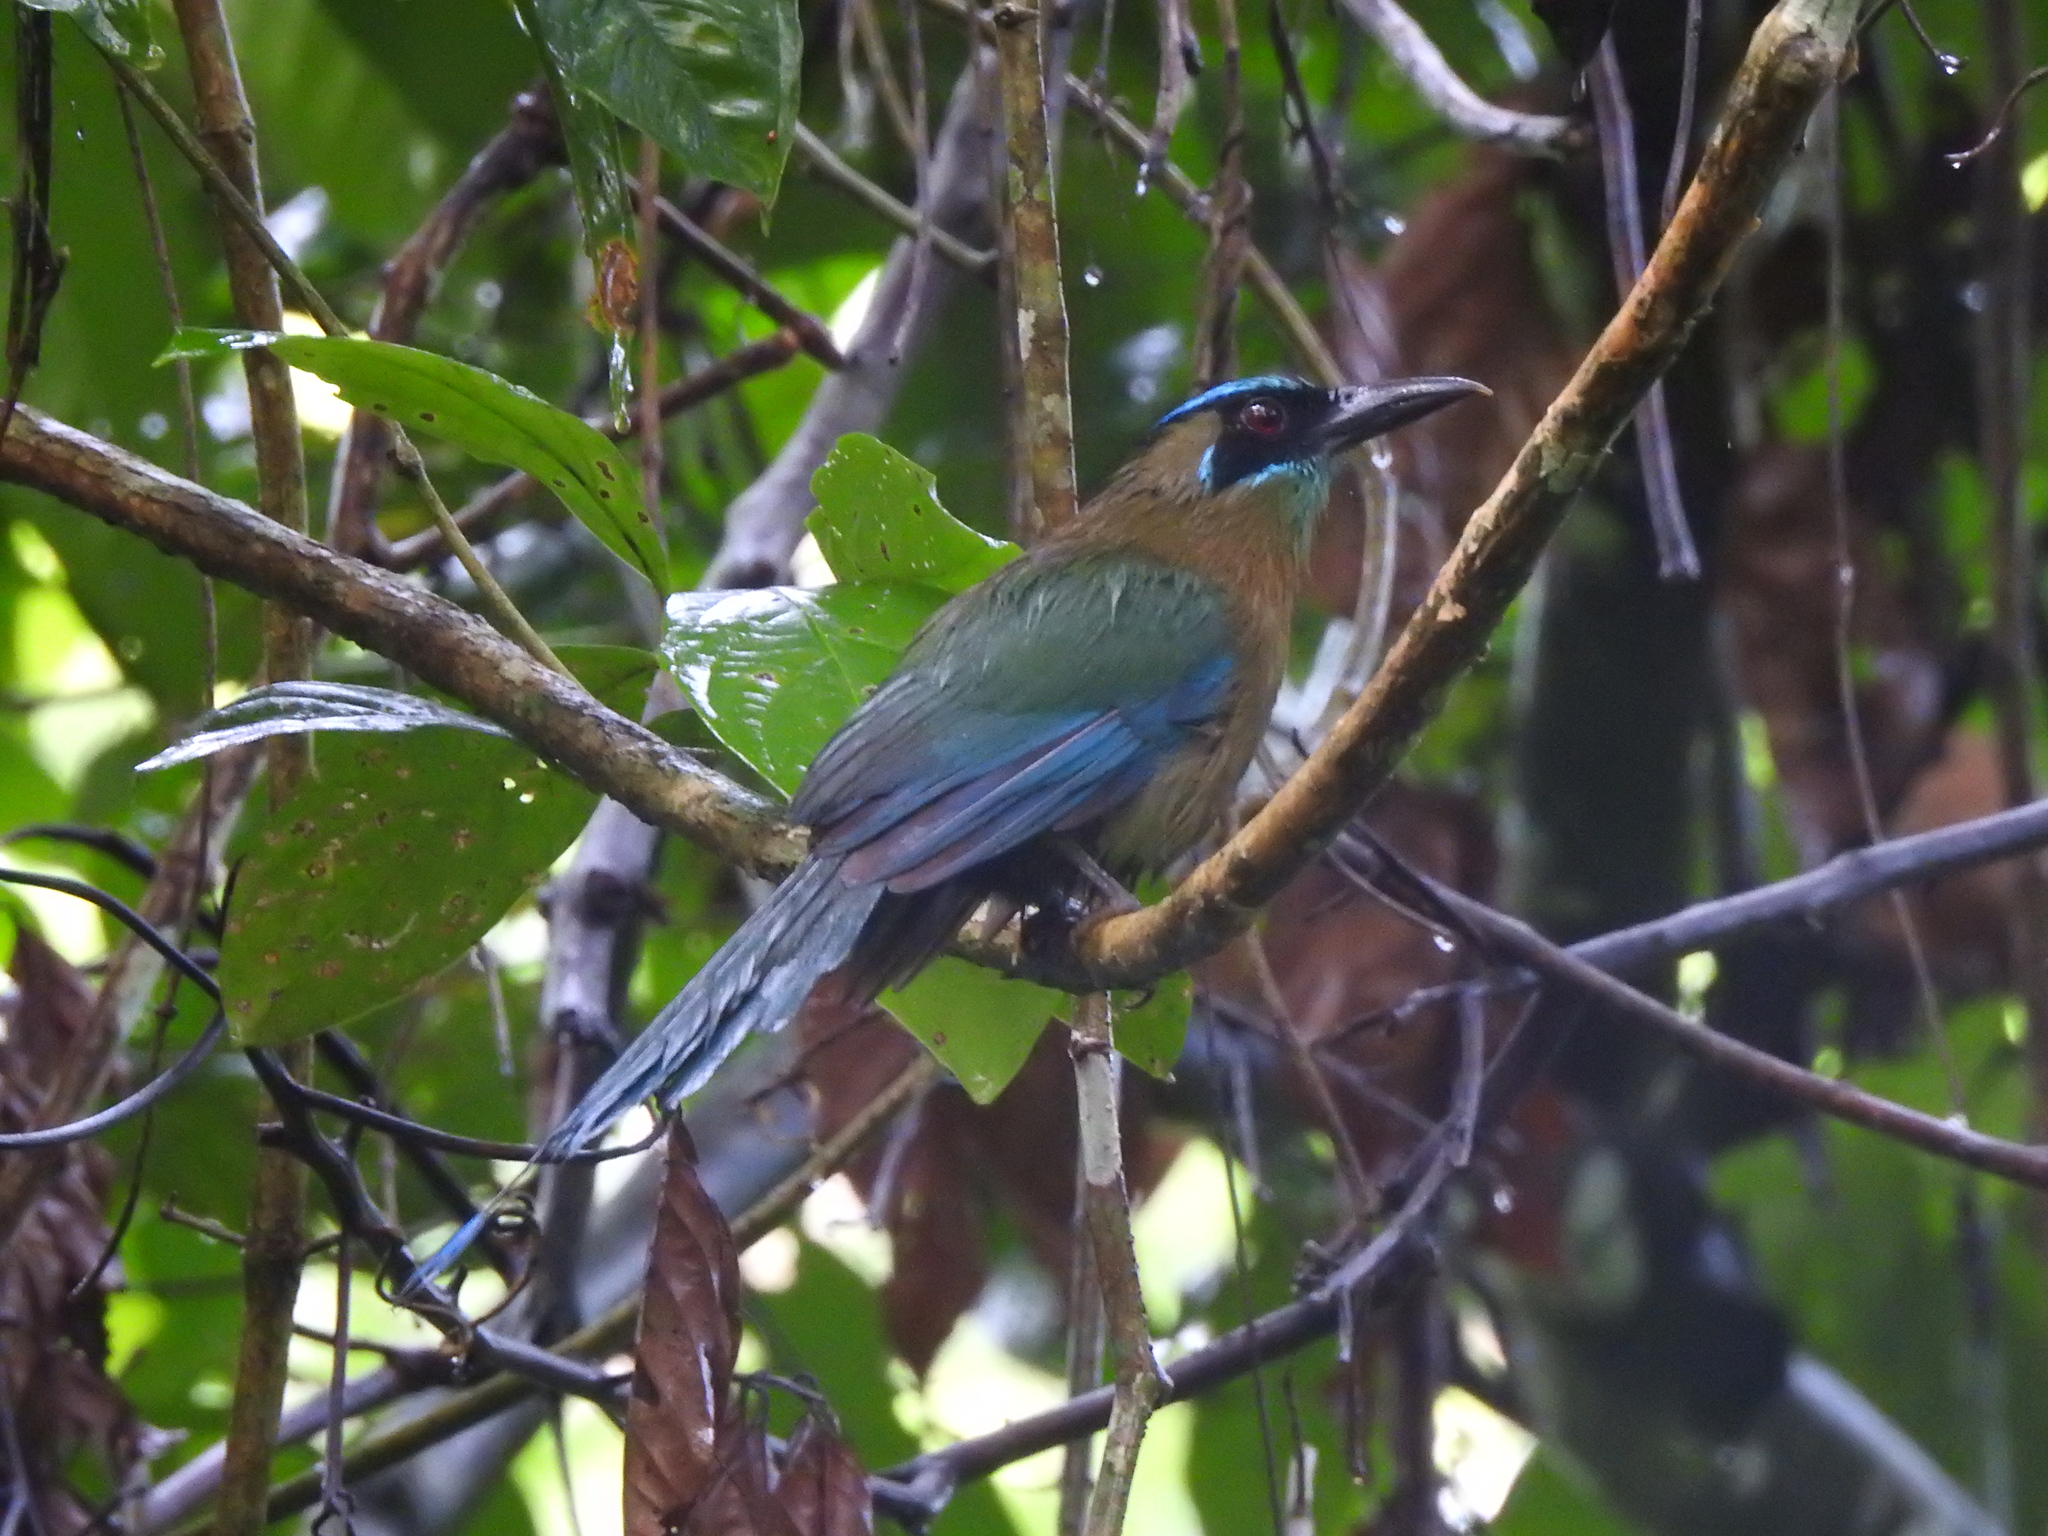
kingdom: Animalia
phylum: Chordata
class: Aves
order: Coraciiformes
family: Momotidae
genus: Momotus
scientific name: Momotus lessonii
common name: Lesson's motmot
